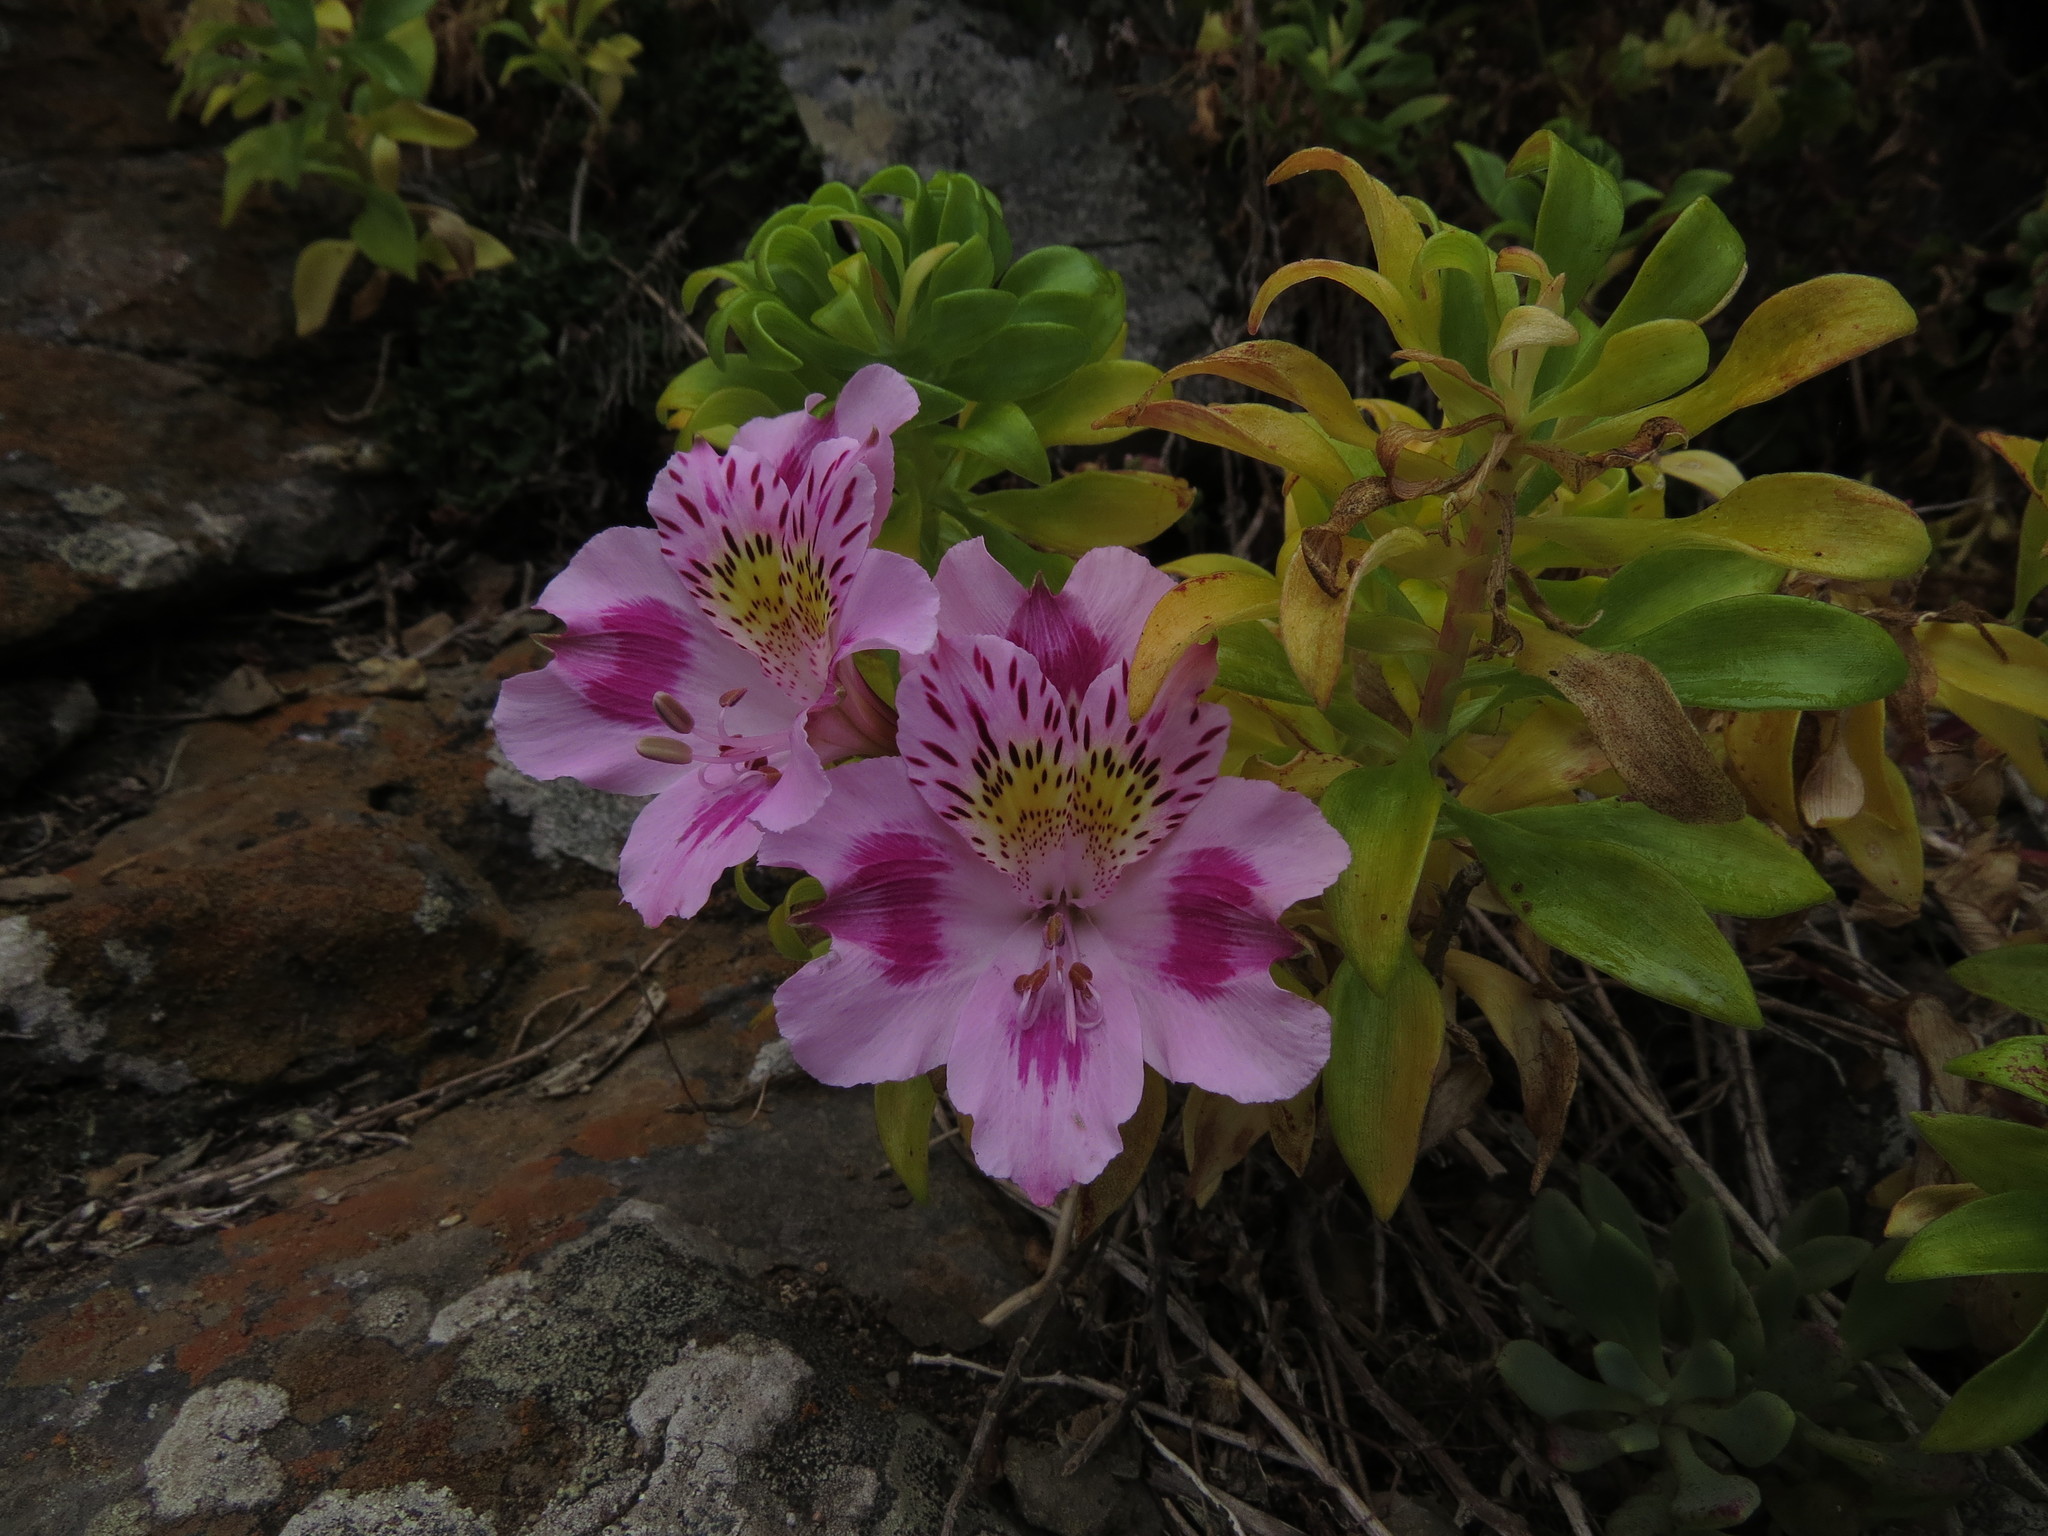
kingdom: Plantae
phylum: Tracheophyta
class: Liliopsida
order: Liliales
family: Alstroemeriaceae
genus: Alstroemeria
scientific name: Alstroemeria pelegrina
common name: Peruvian-lily
